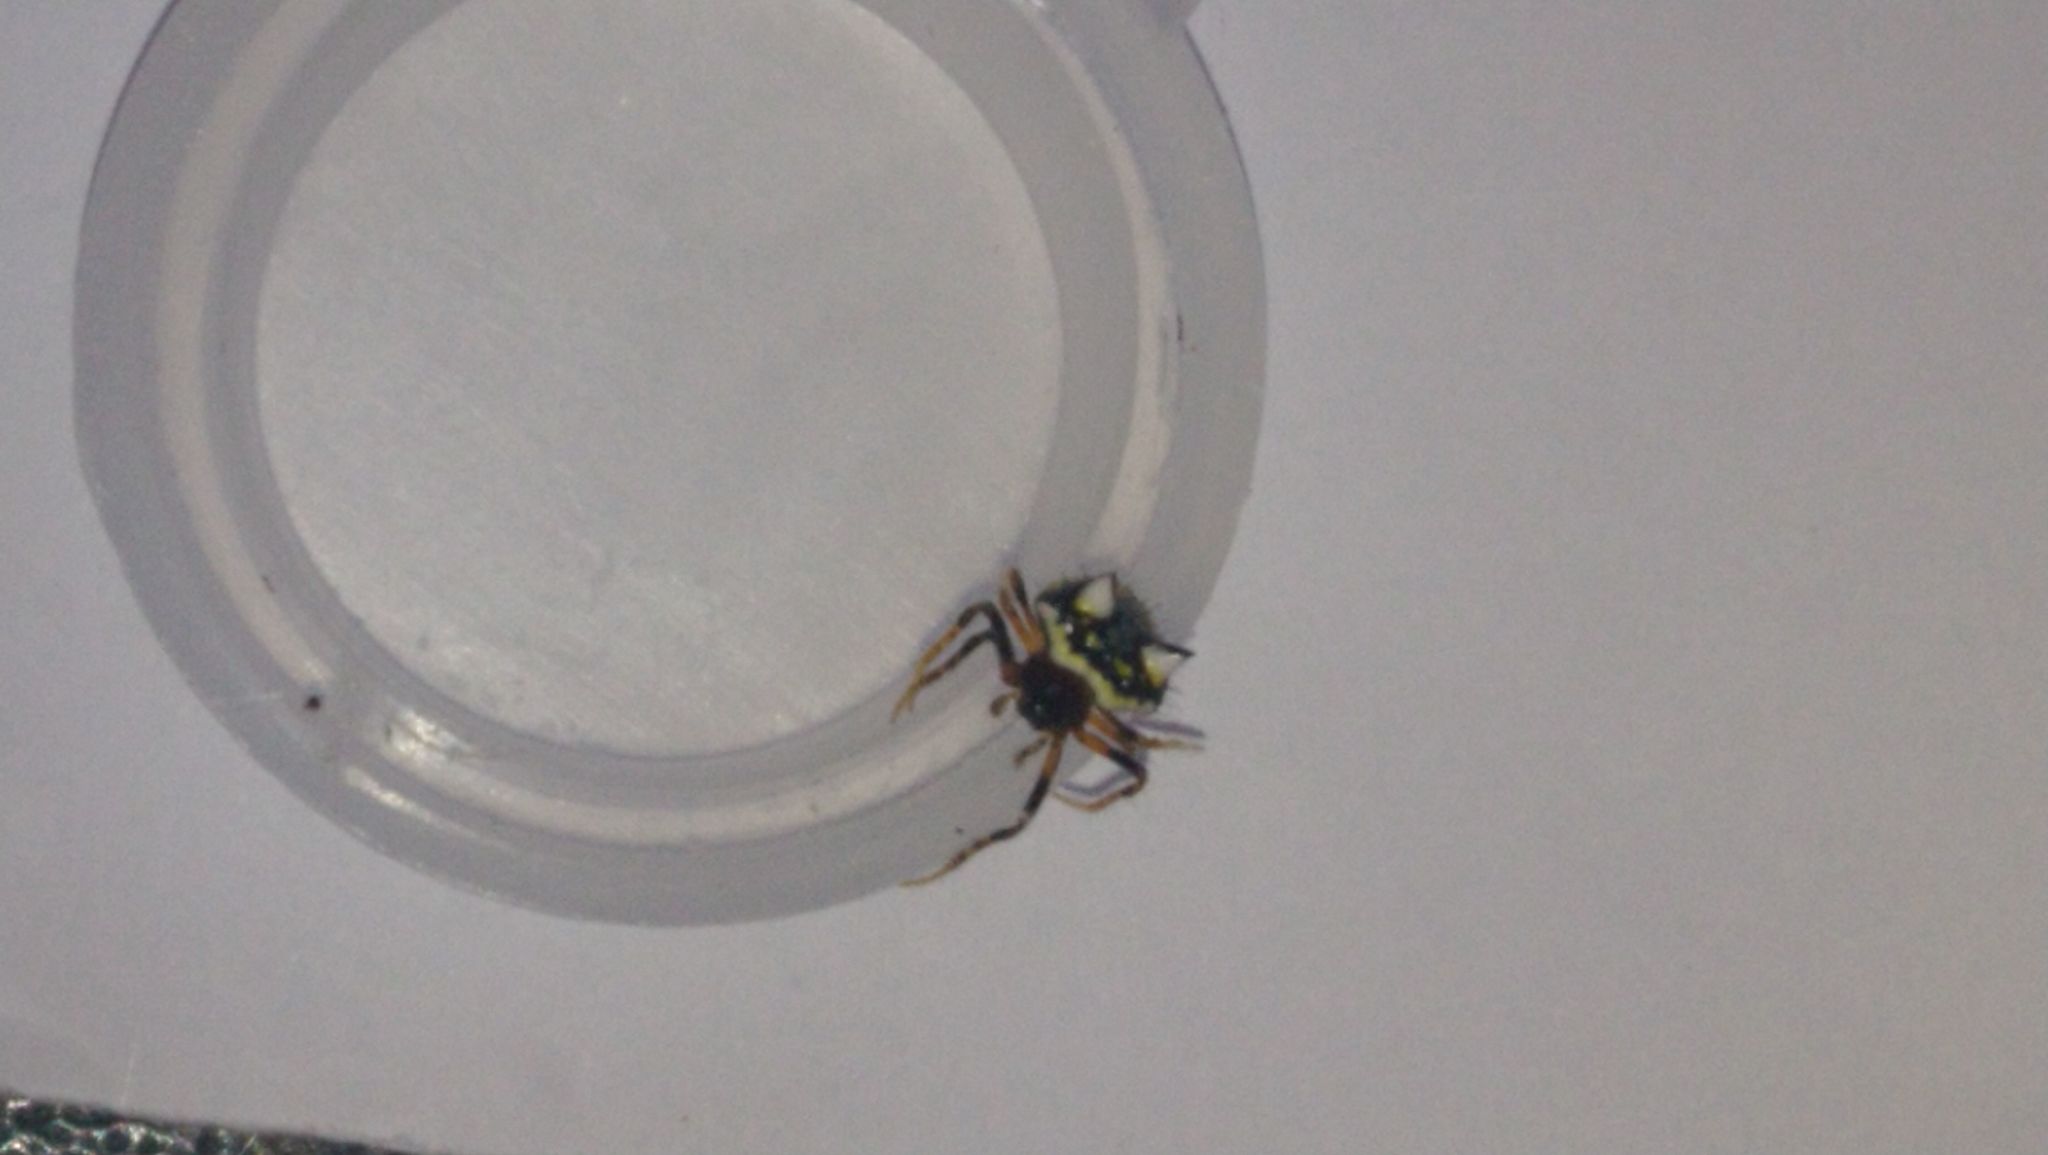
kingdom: Animalia
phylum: Arthropoda
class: Arachnida
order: Araneae
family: Araneidae
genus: Poecilopachys
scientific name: Poecilopachys australasia
